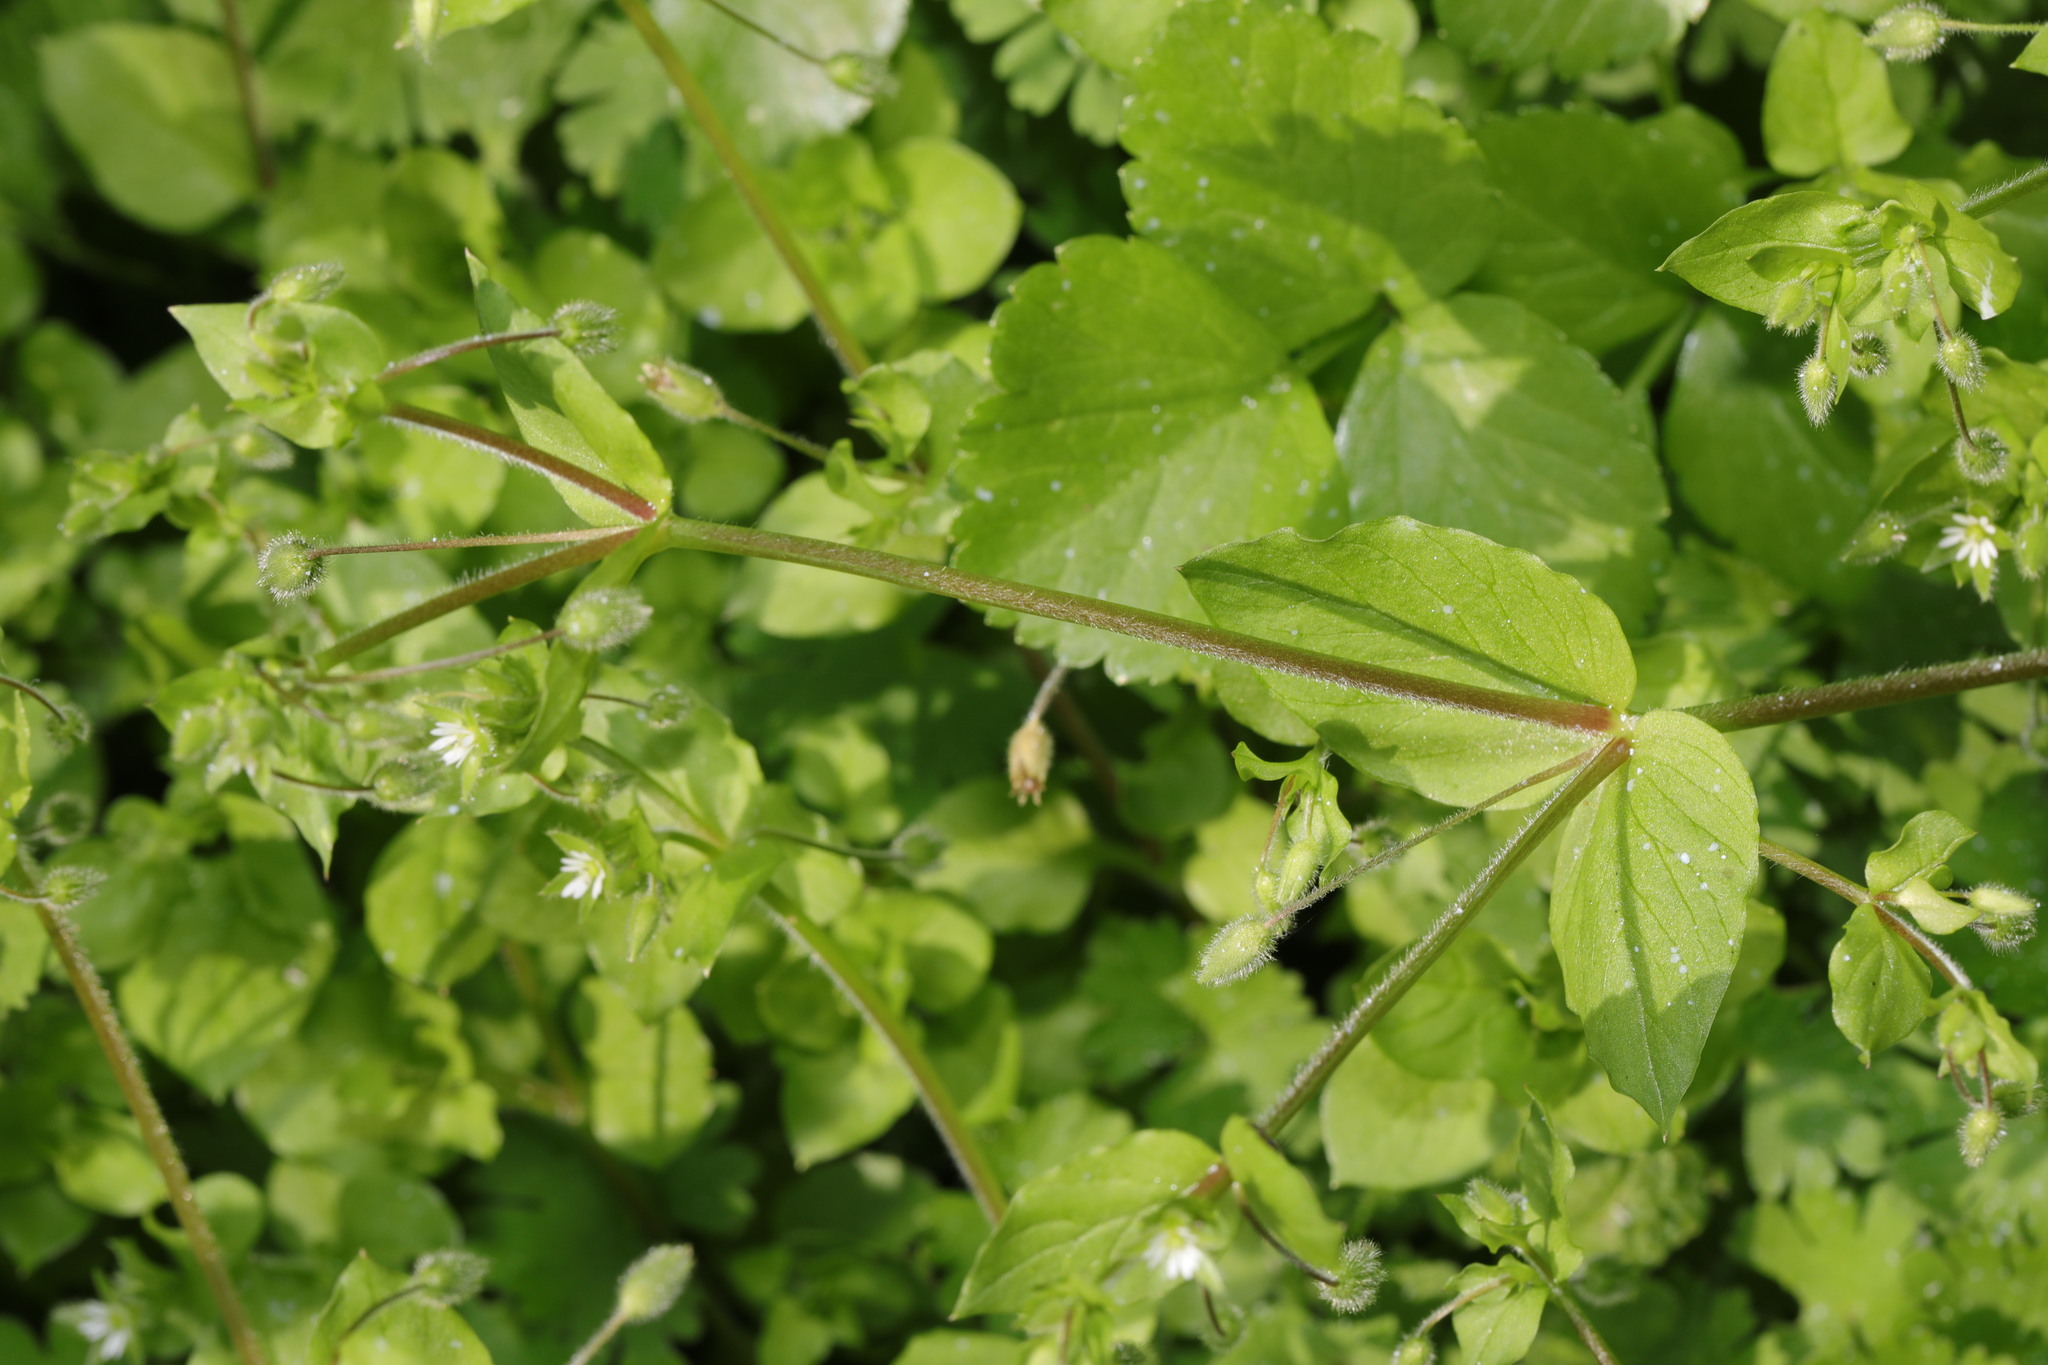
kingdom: Plantae
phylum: Tracheophyta
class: Magnoliopsida
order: Caryophyllales
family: Caryophyllaceae
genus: Stellaria
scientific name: Stellaria media
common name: Common chickweed
